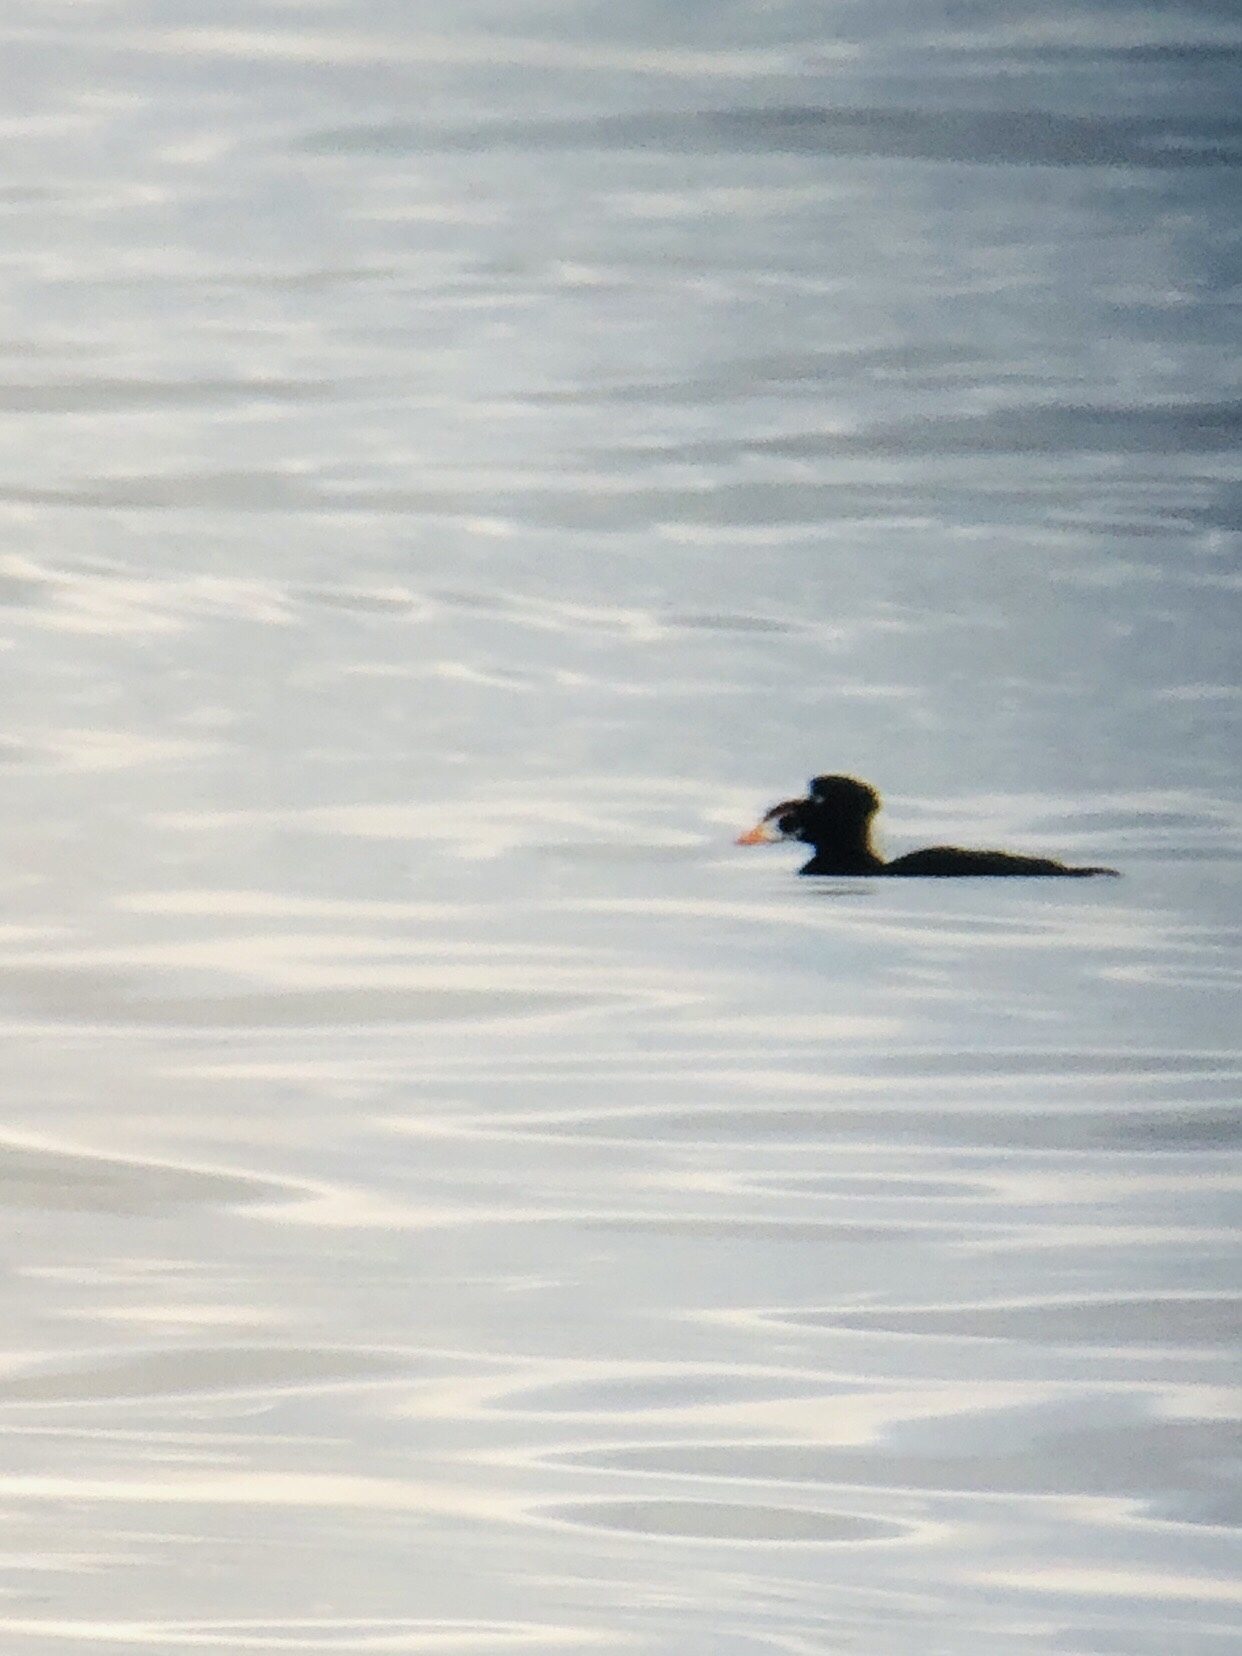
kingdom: Animalia
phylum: Chordata
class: Aves
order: Anseriformes
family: Anatidae
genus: Melanitta
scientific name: Melanitta perspicillata
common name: Surf scoter
